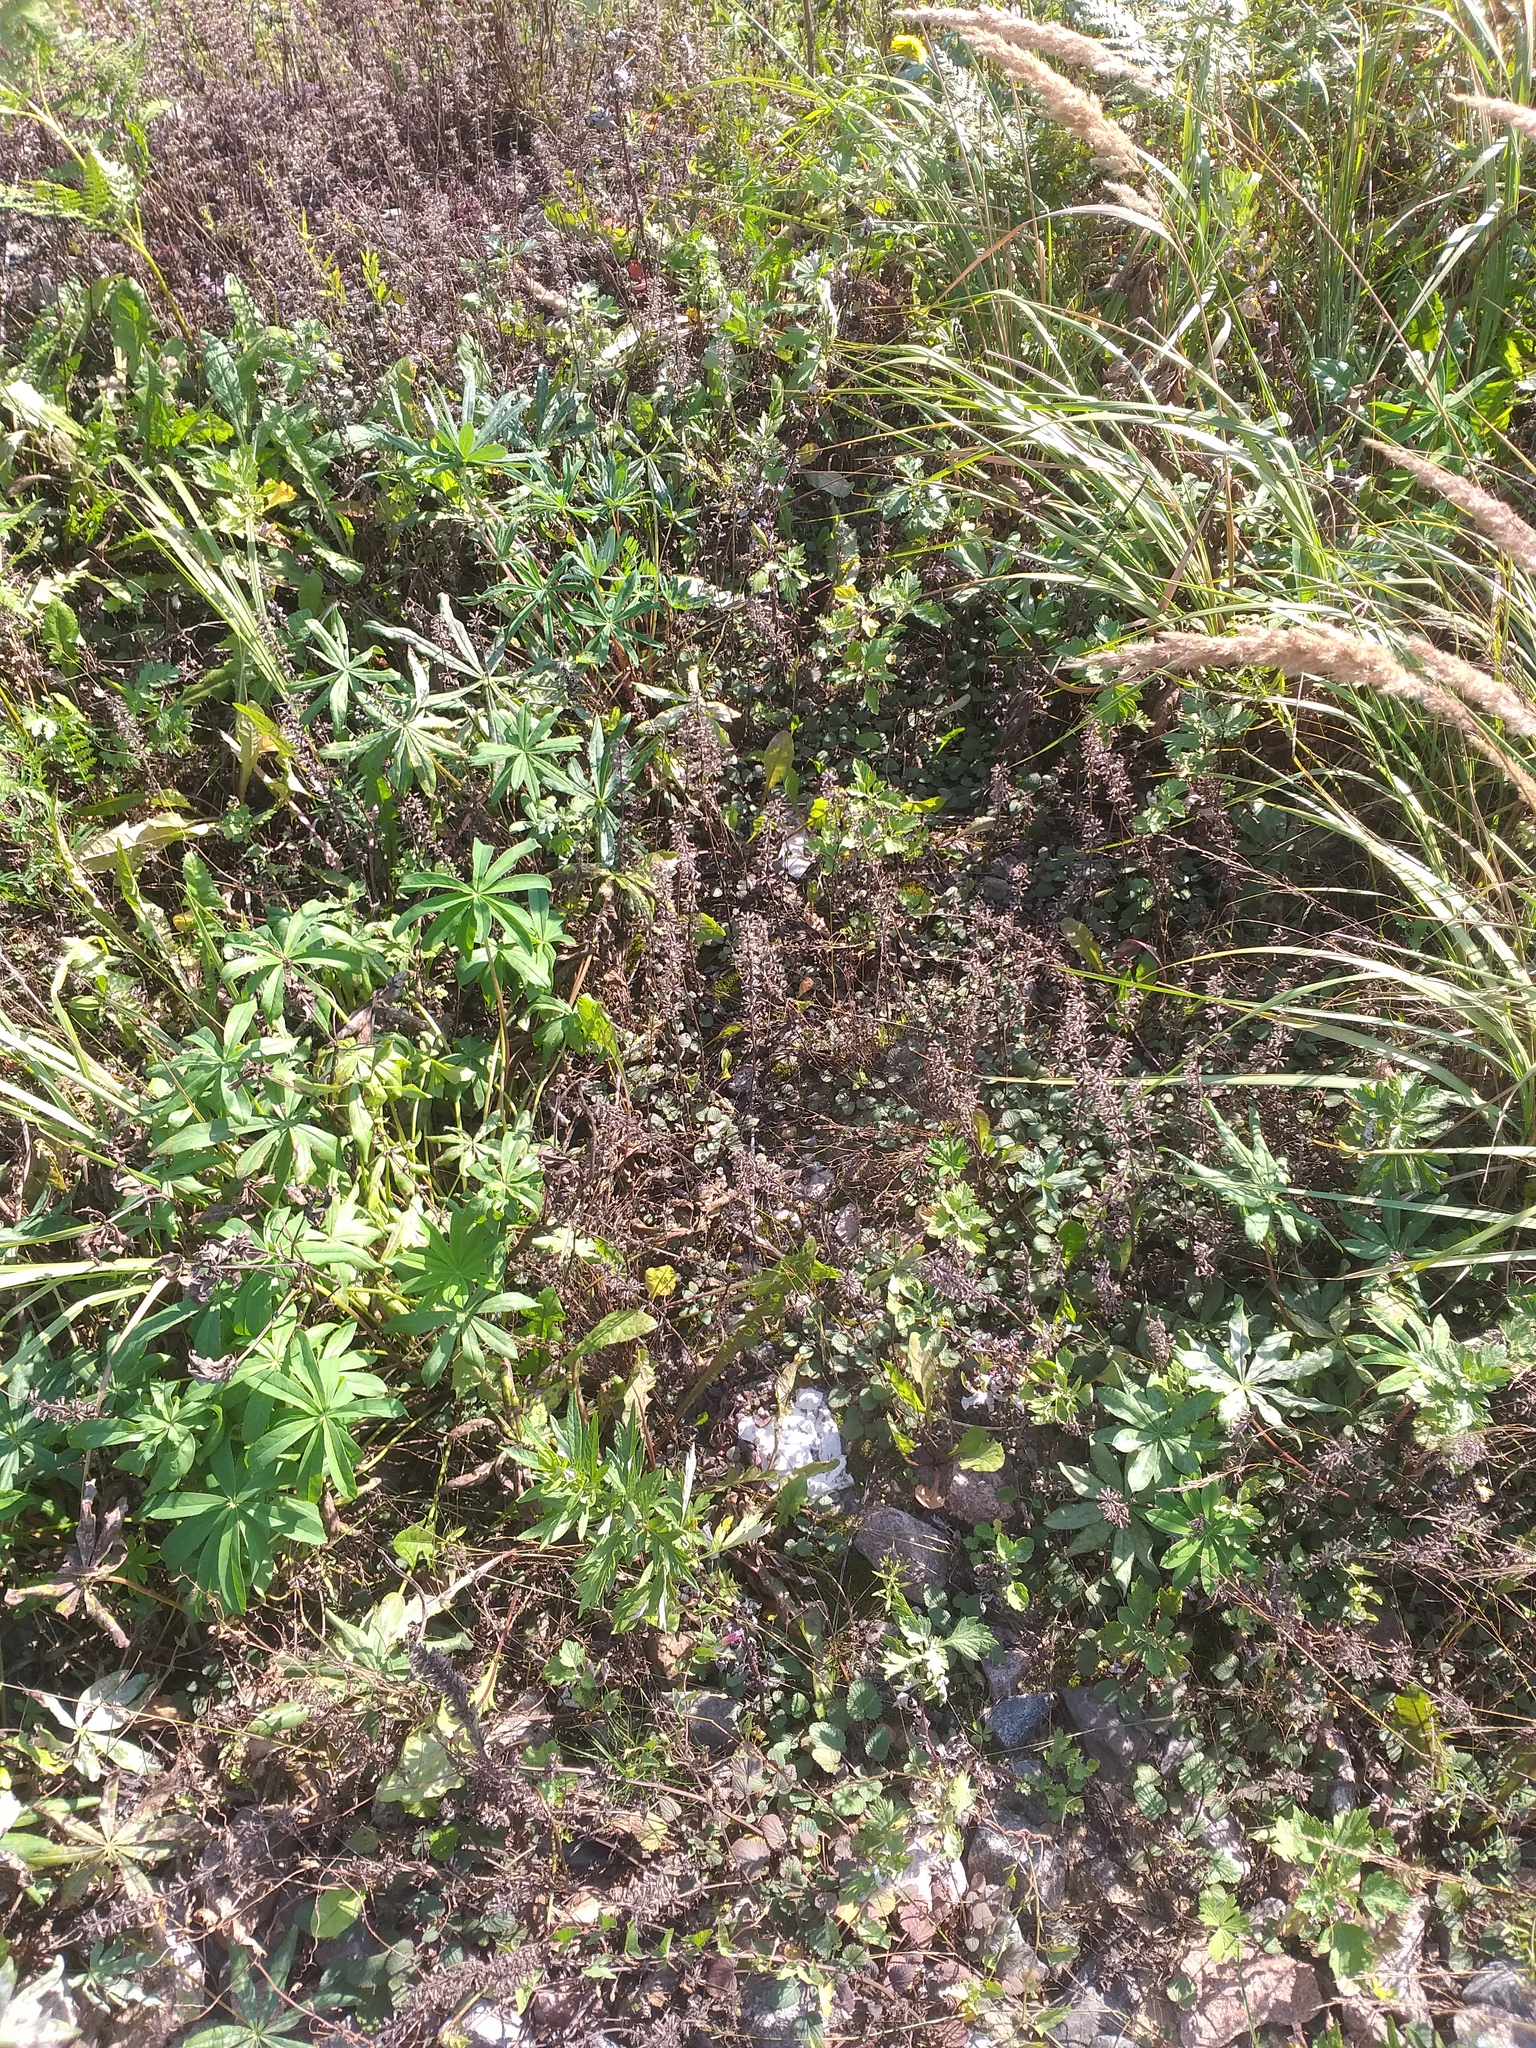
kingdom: Plantae
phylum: Tracheophyta
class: Magnoliopsida
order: Lamiales
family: Lamiaceae
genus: Dracocephalum
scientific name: Dracocephalum thymiflorum
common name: Thymeleaf dragonhead
